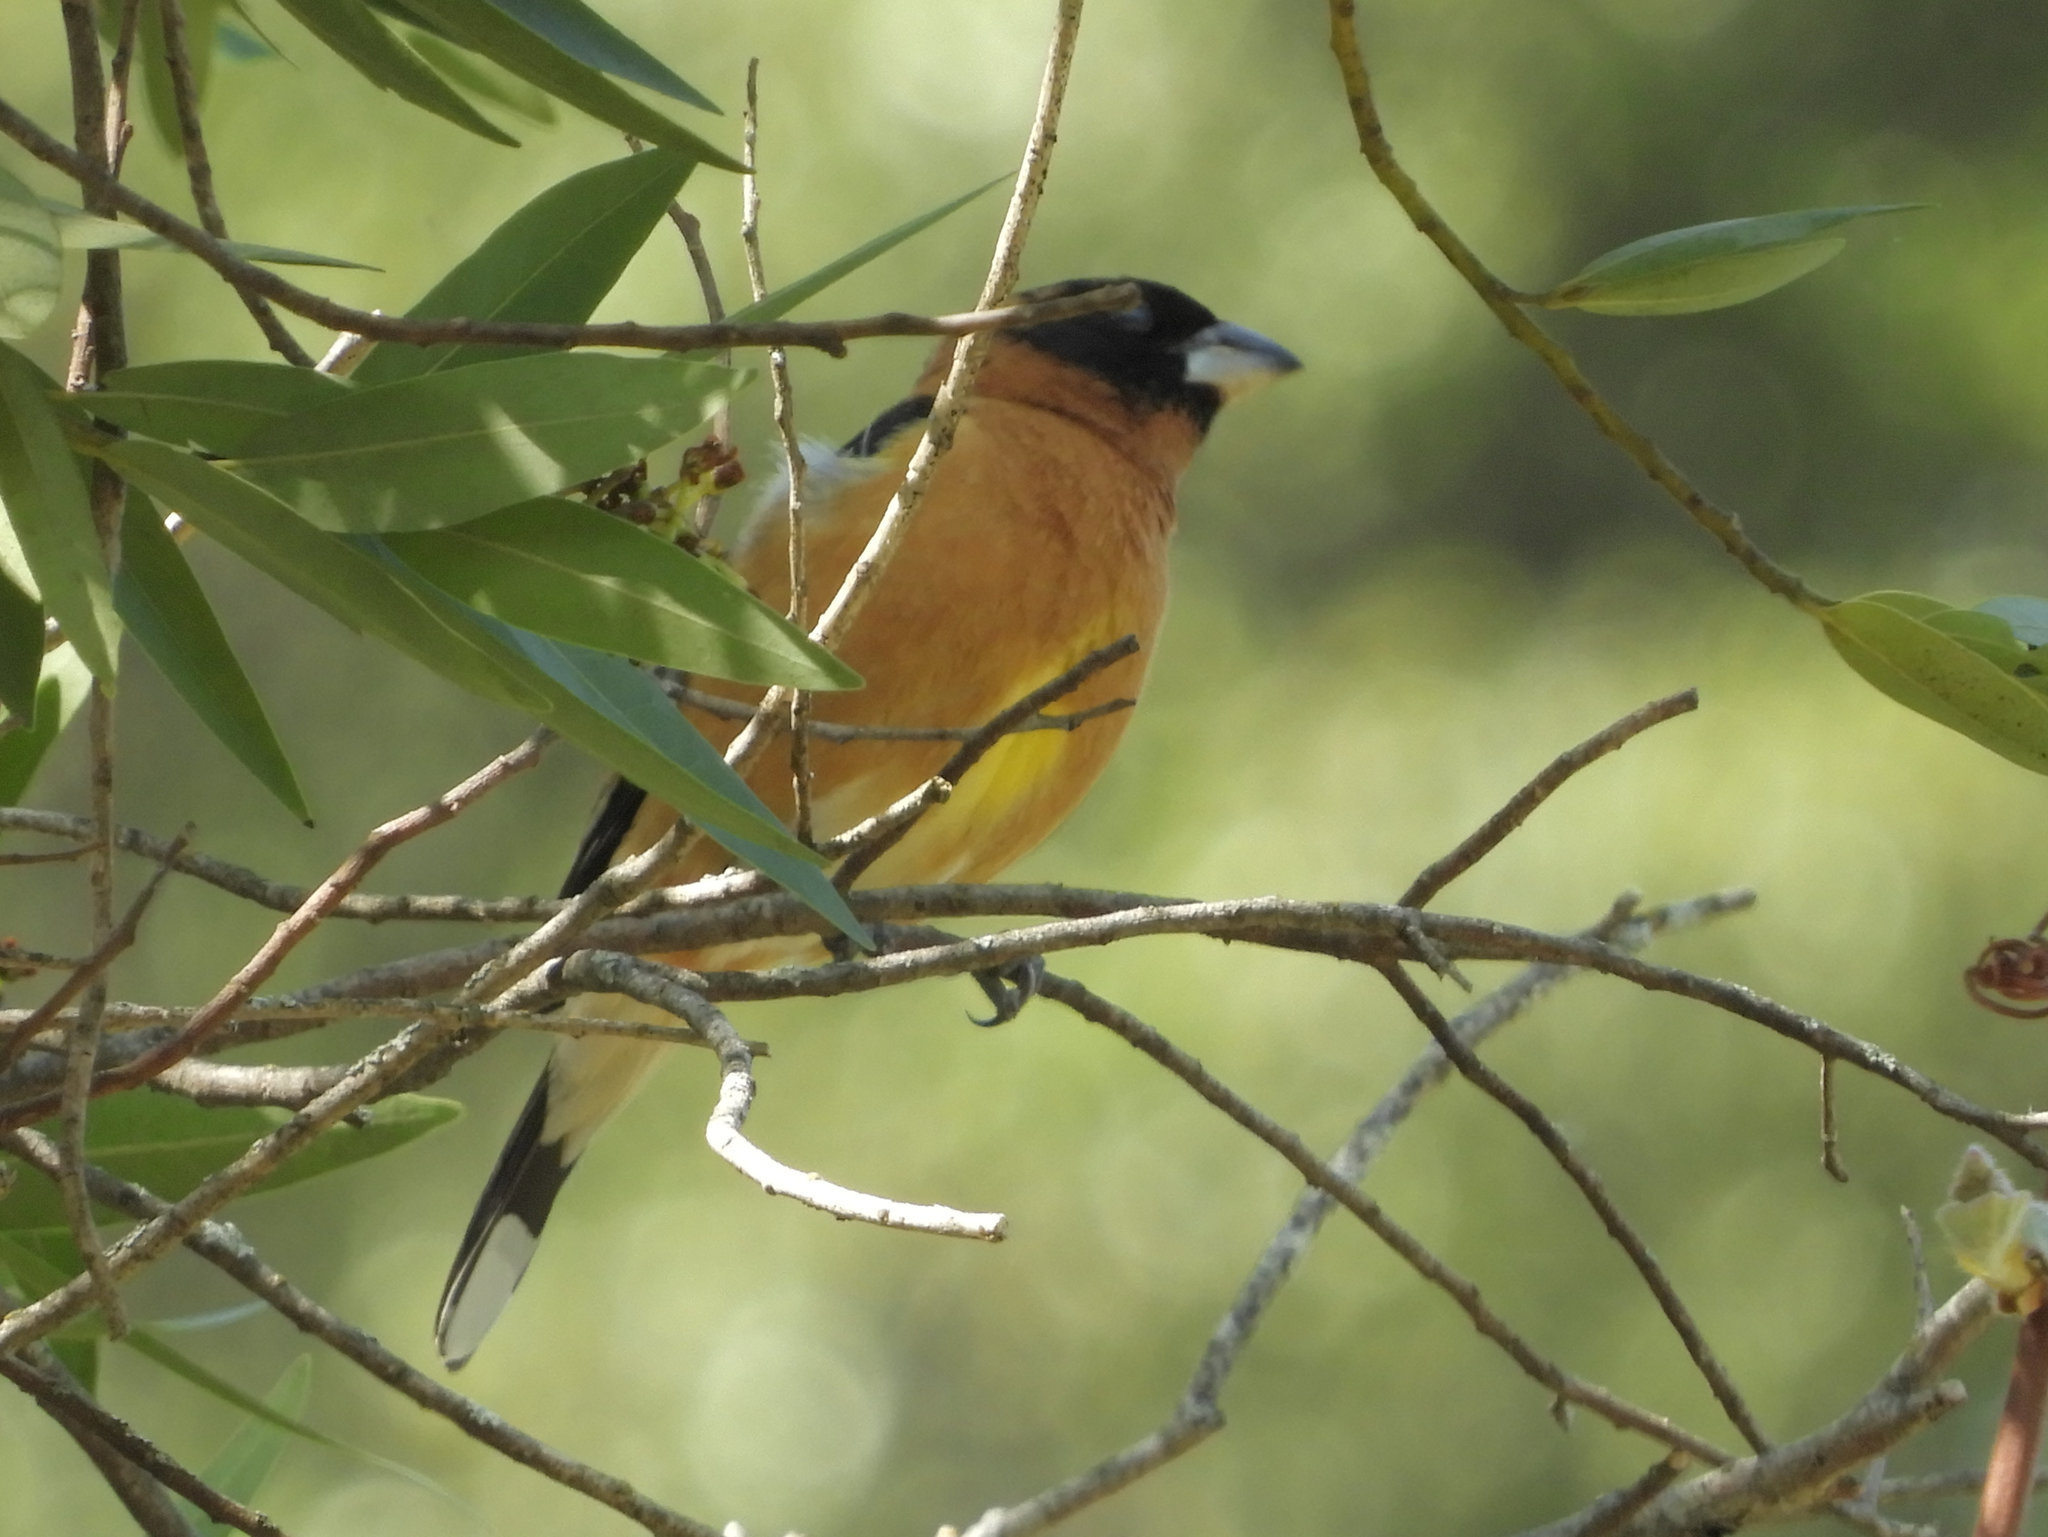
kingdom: Animalia
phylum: Chordata
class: Aves
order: Passeriformes
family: Cardinalidae
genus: Pheucticus
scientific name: Pheucticus melanocephalus
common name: Black-headed grosbeak
